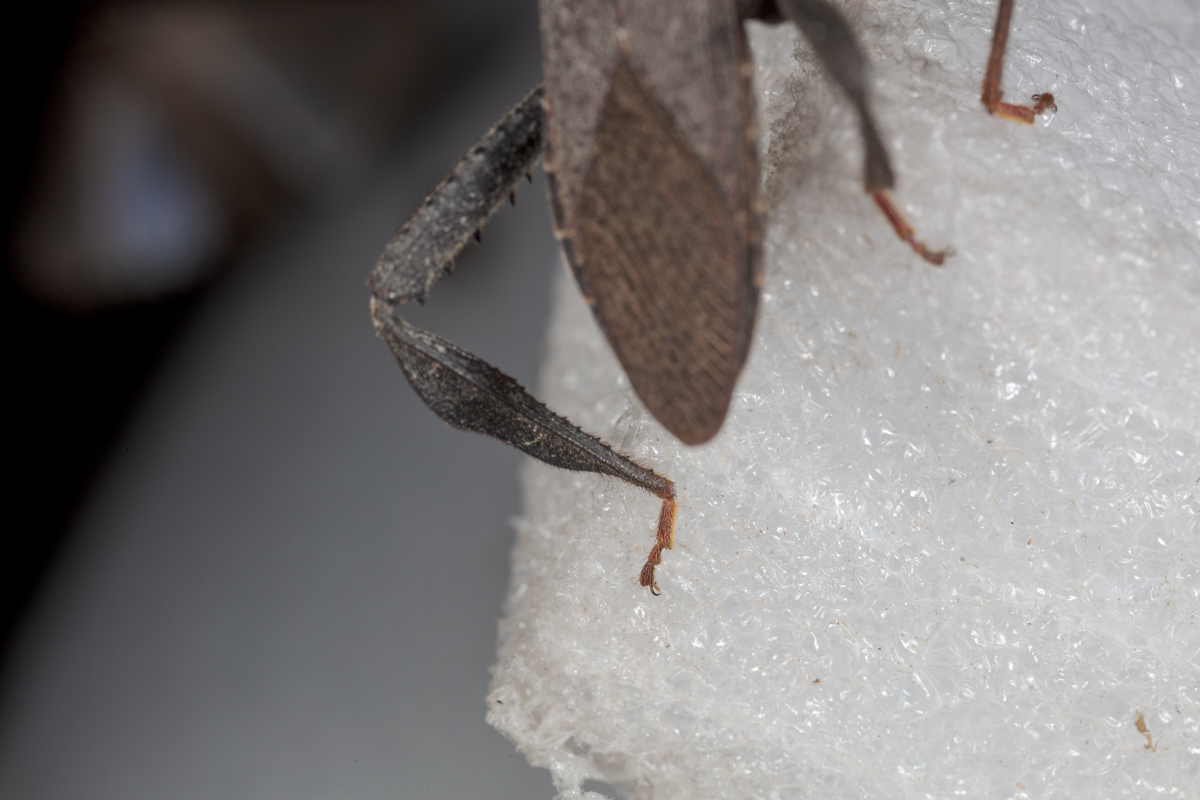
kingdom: Animalia
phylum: Arthropoda
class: Insecta
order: Hemiptera
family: Coreidae
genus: Acanthocephala
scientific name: Acanthocephala terminalis
